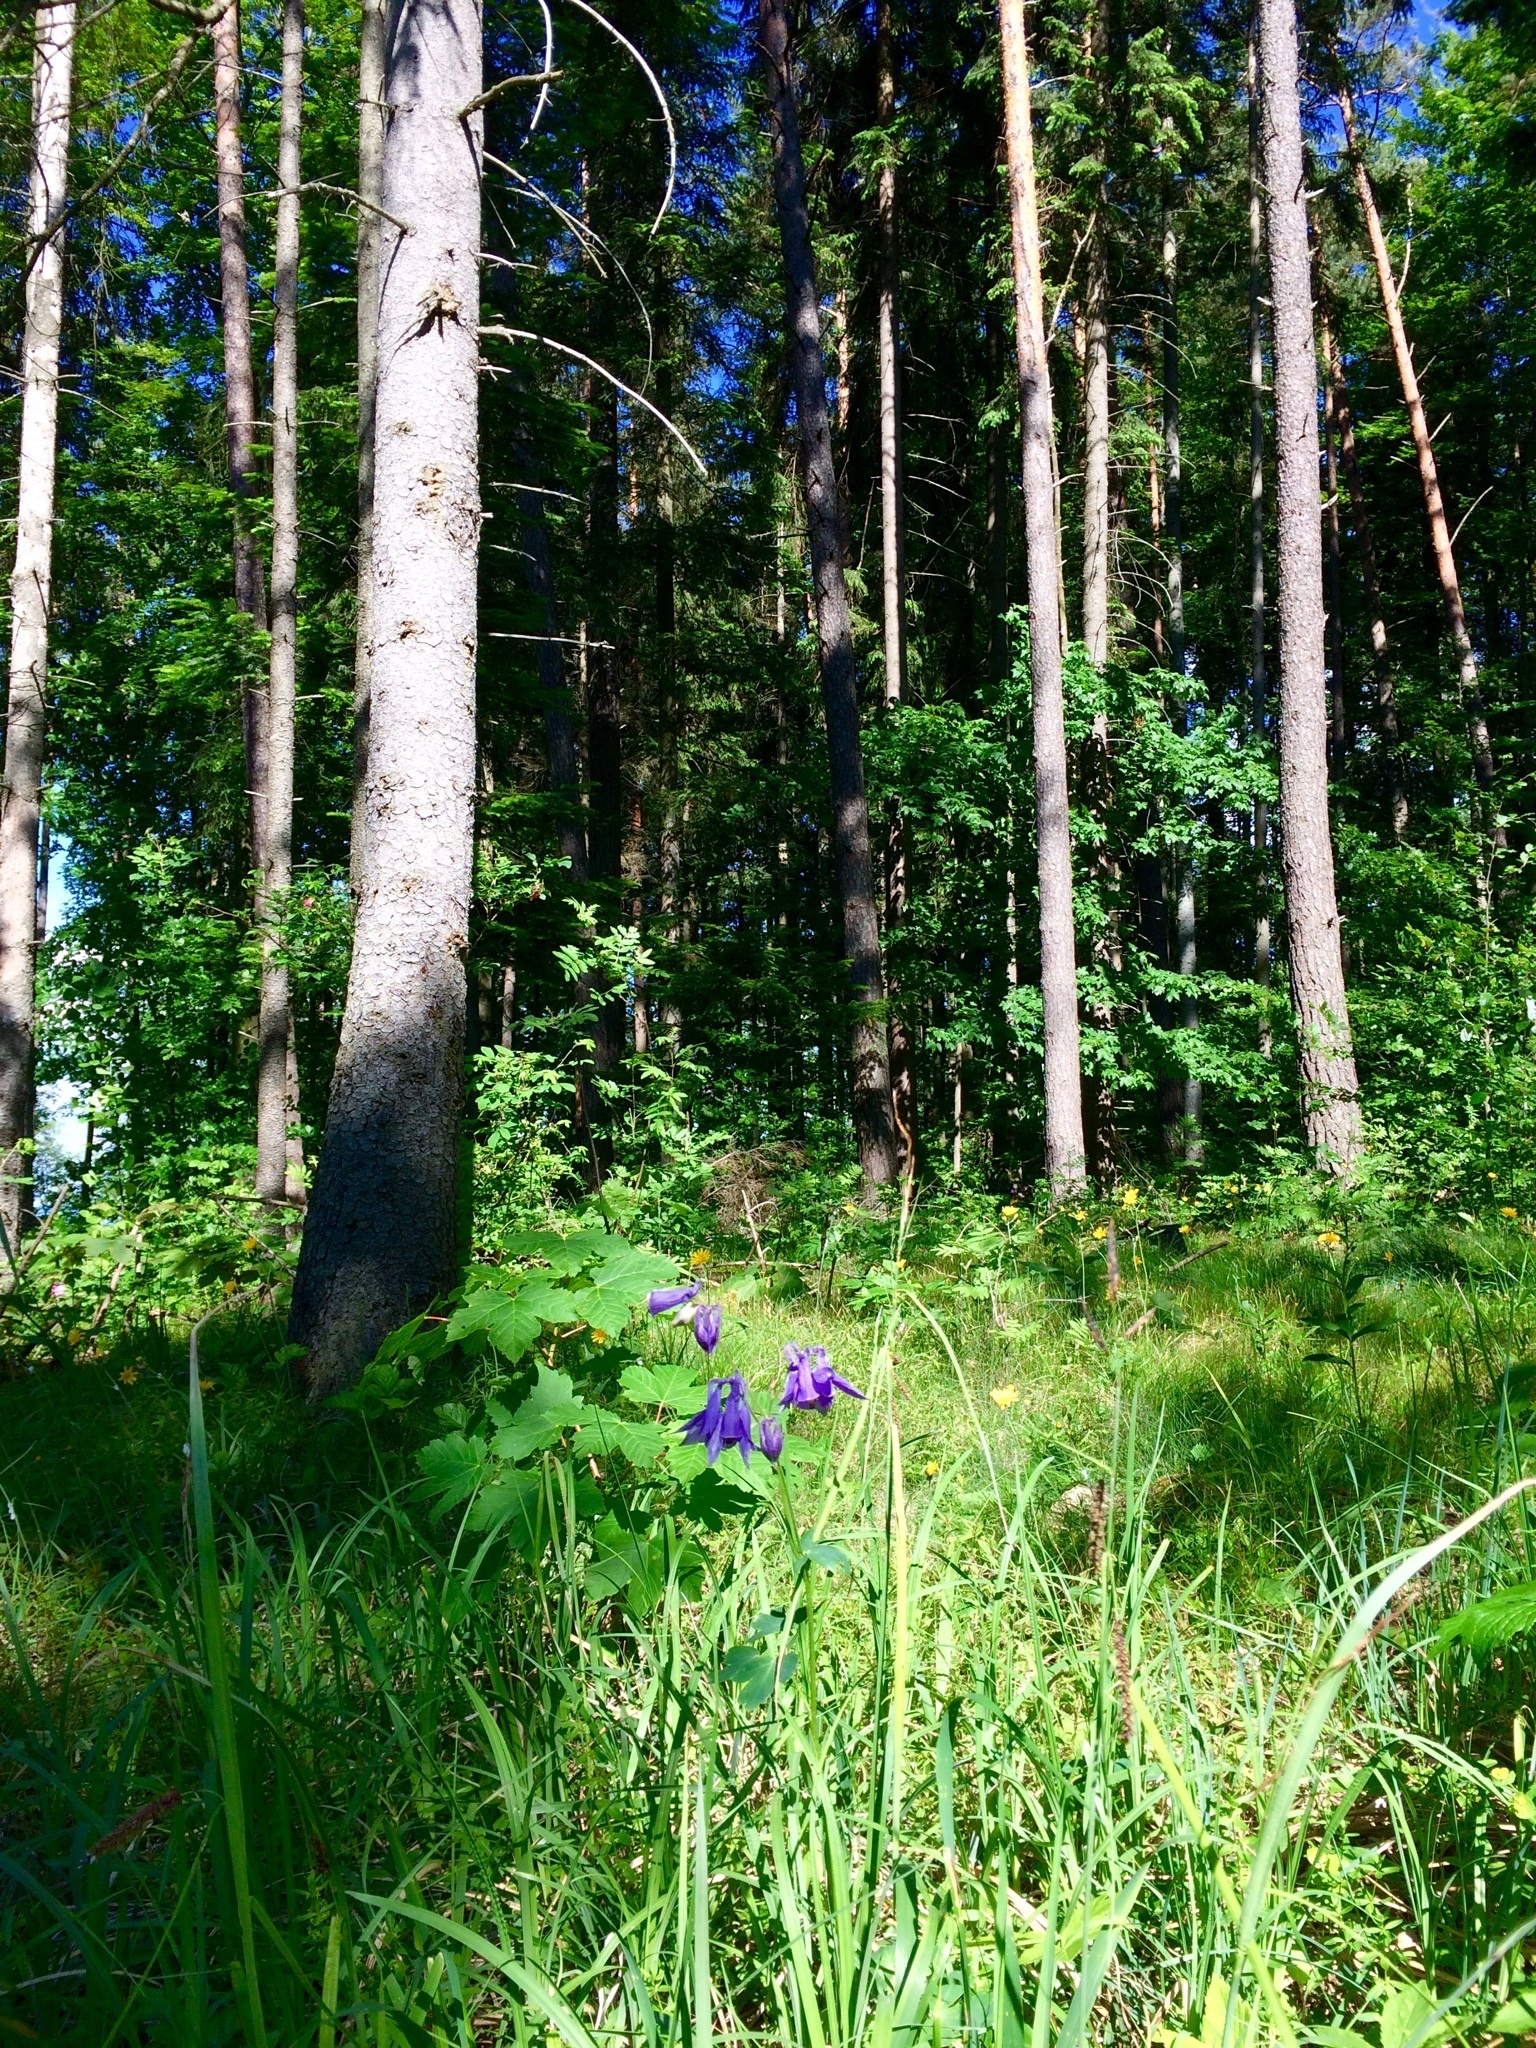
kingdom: Plantae
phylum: Tracheophyta
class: Magnoliopsida
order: Ranunculales
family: Ranunculaceae
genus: Aquilegia
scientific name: Aquilegia vulgaris
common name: Columbine
